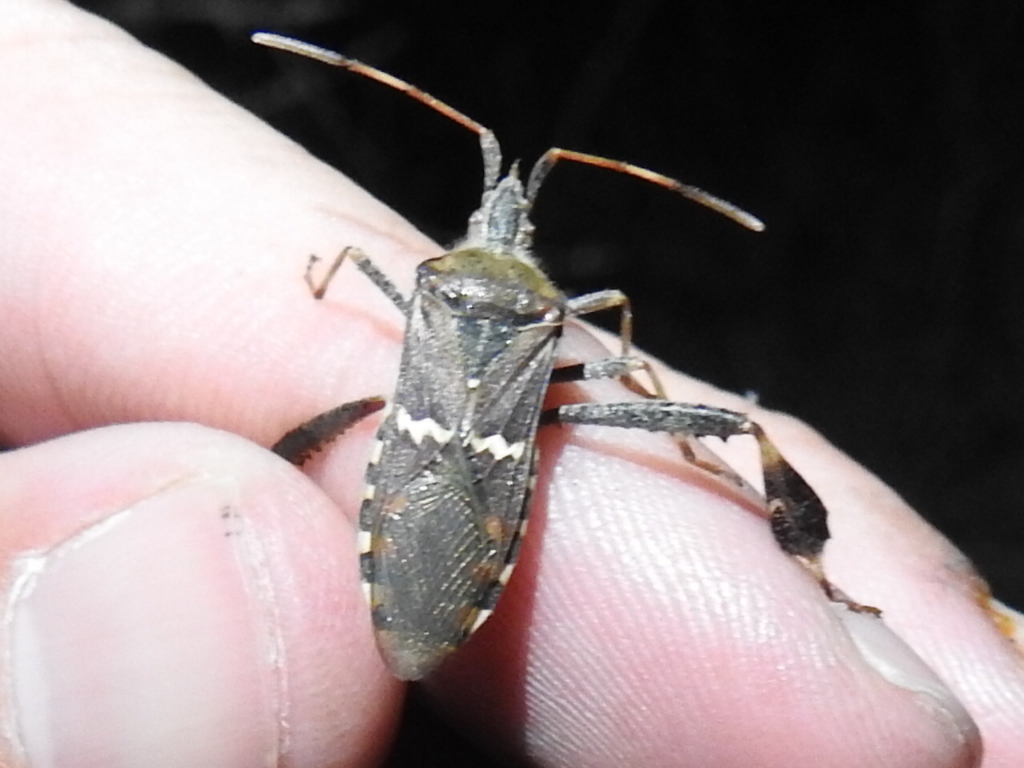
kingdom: Animalia
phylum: Arthropoda
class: Insecta
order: Hemiptera
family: Coreidae
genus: Leptoglossus
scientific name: Leptoglossus clypealis
